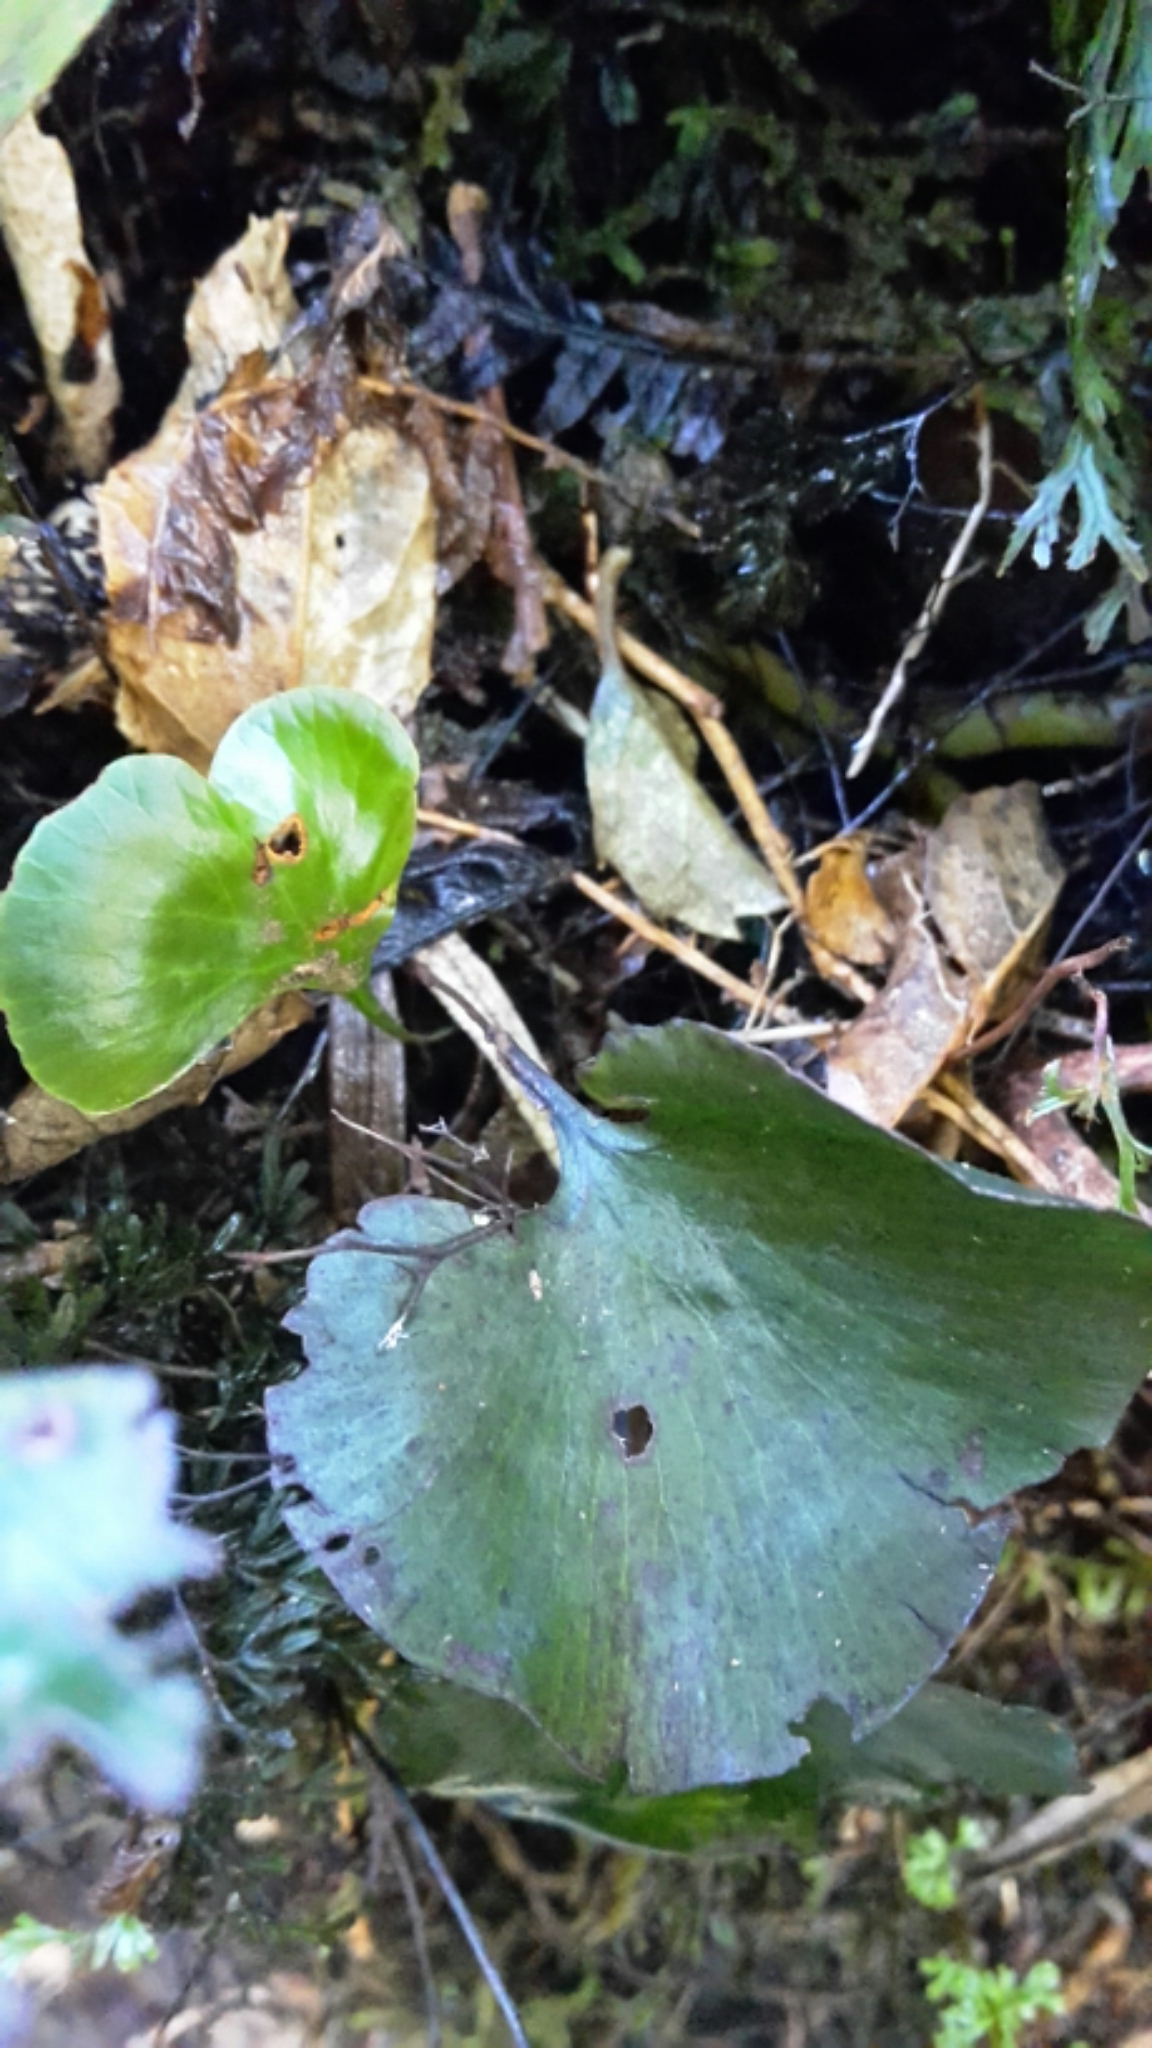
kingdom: Plantae
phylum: Tracheophyta
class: Polypodiopsida
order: Hymenophyllales
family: Hymenophyllaceae
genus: Hymenophyllum
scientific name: Hymenophyllum nephrophyllum
